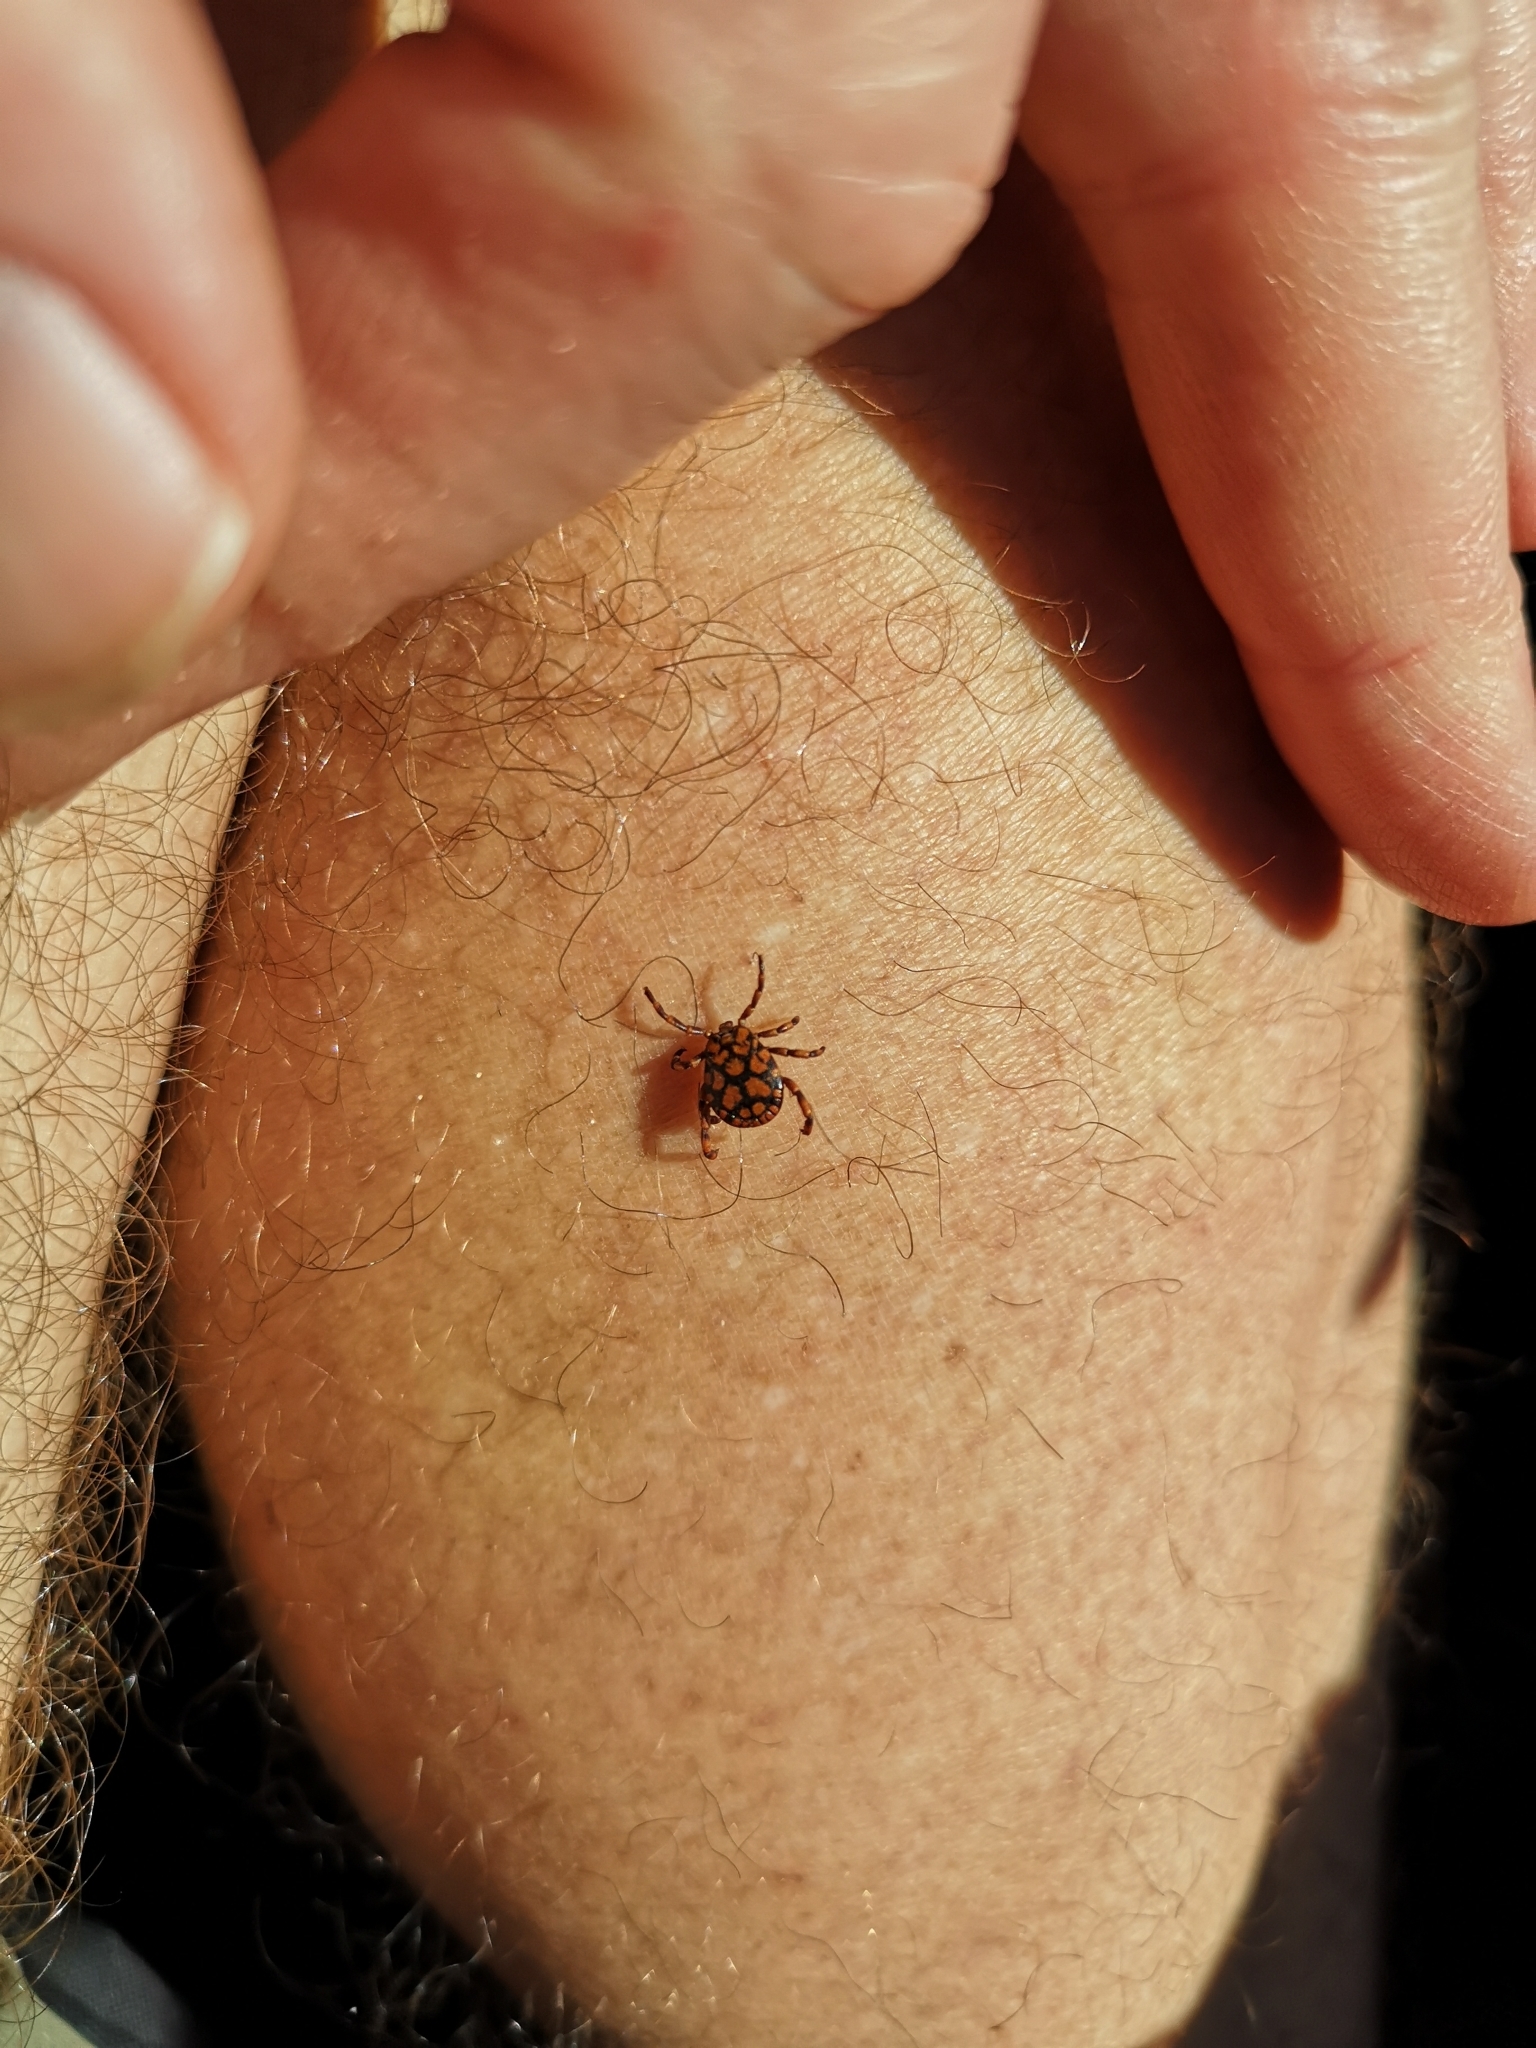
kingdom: Animalia
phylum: Arthropoda
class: Arachnida
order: Ixodida
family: Ixodidae
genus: Dermacentor
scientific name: Dermacentor rhinocerinus
